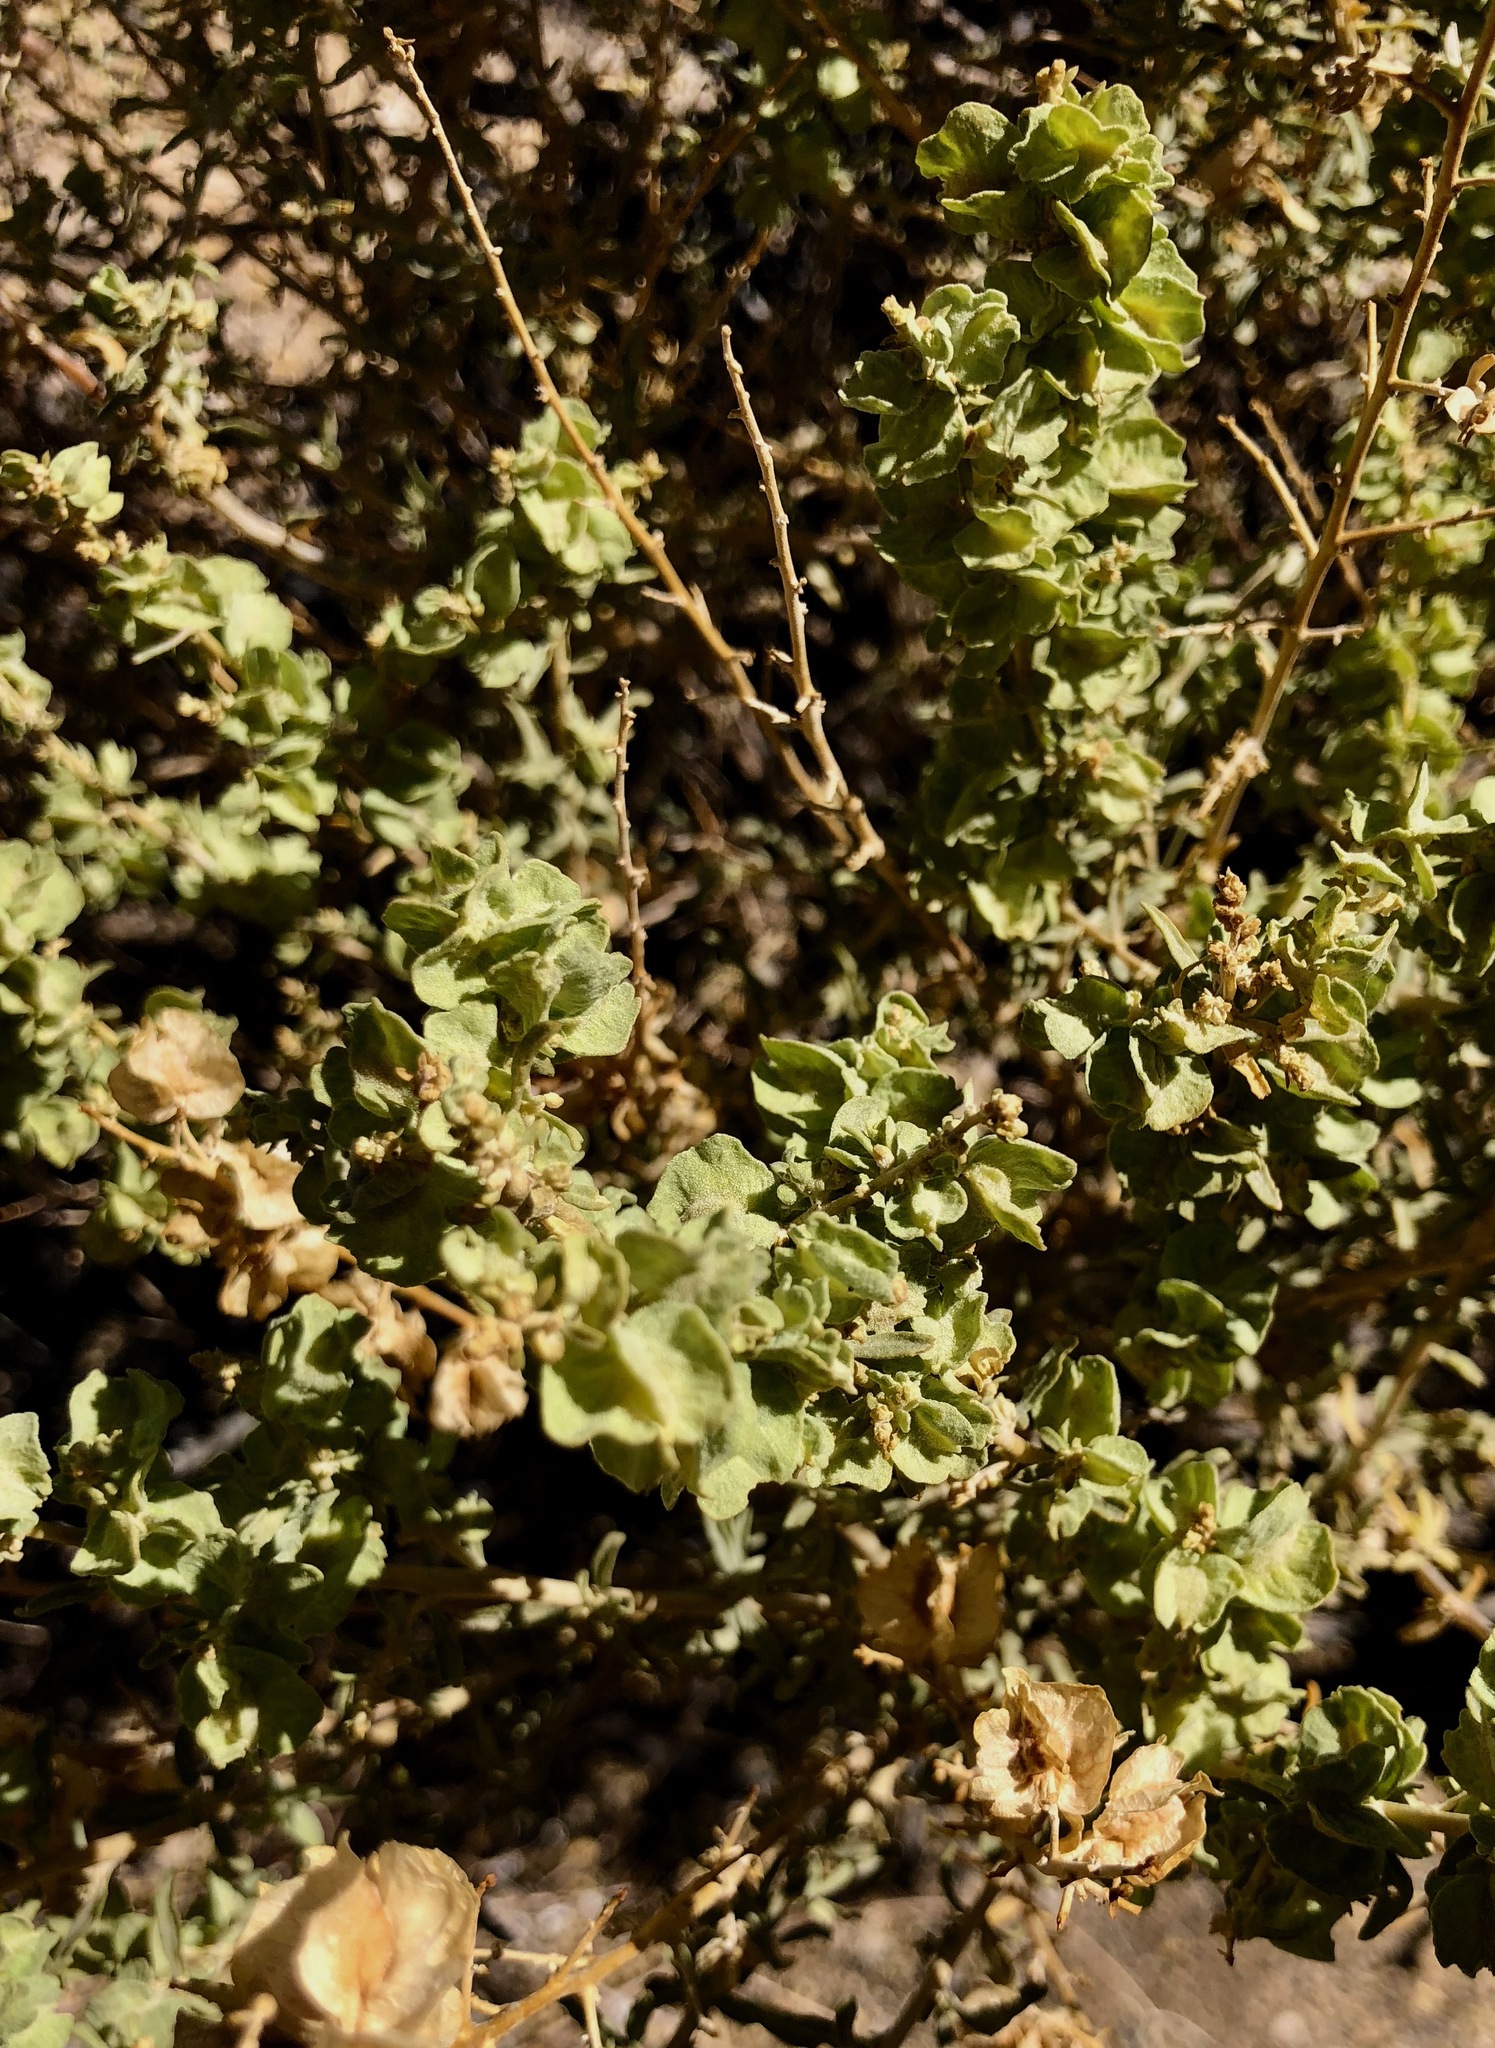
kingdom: Plantae
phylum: Tracheophyta
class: Magnoliopsida
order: Caryophyllales
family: Amaranthaceae
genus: Atriplex
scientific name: Atriplex canescens
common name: Four-wing saltbush
